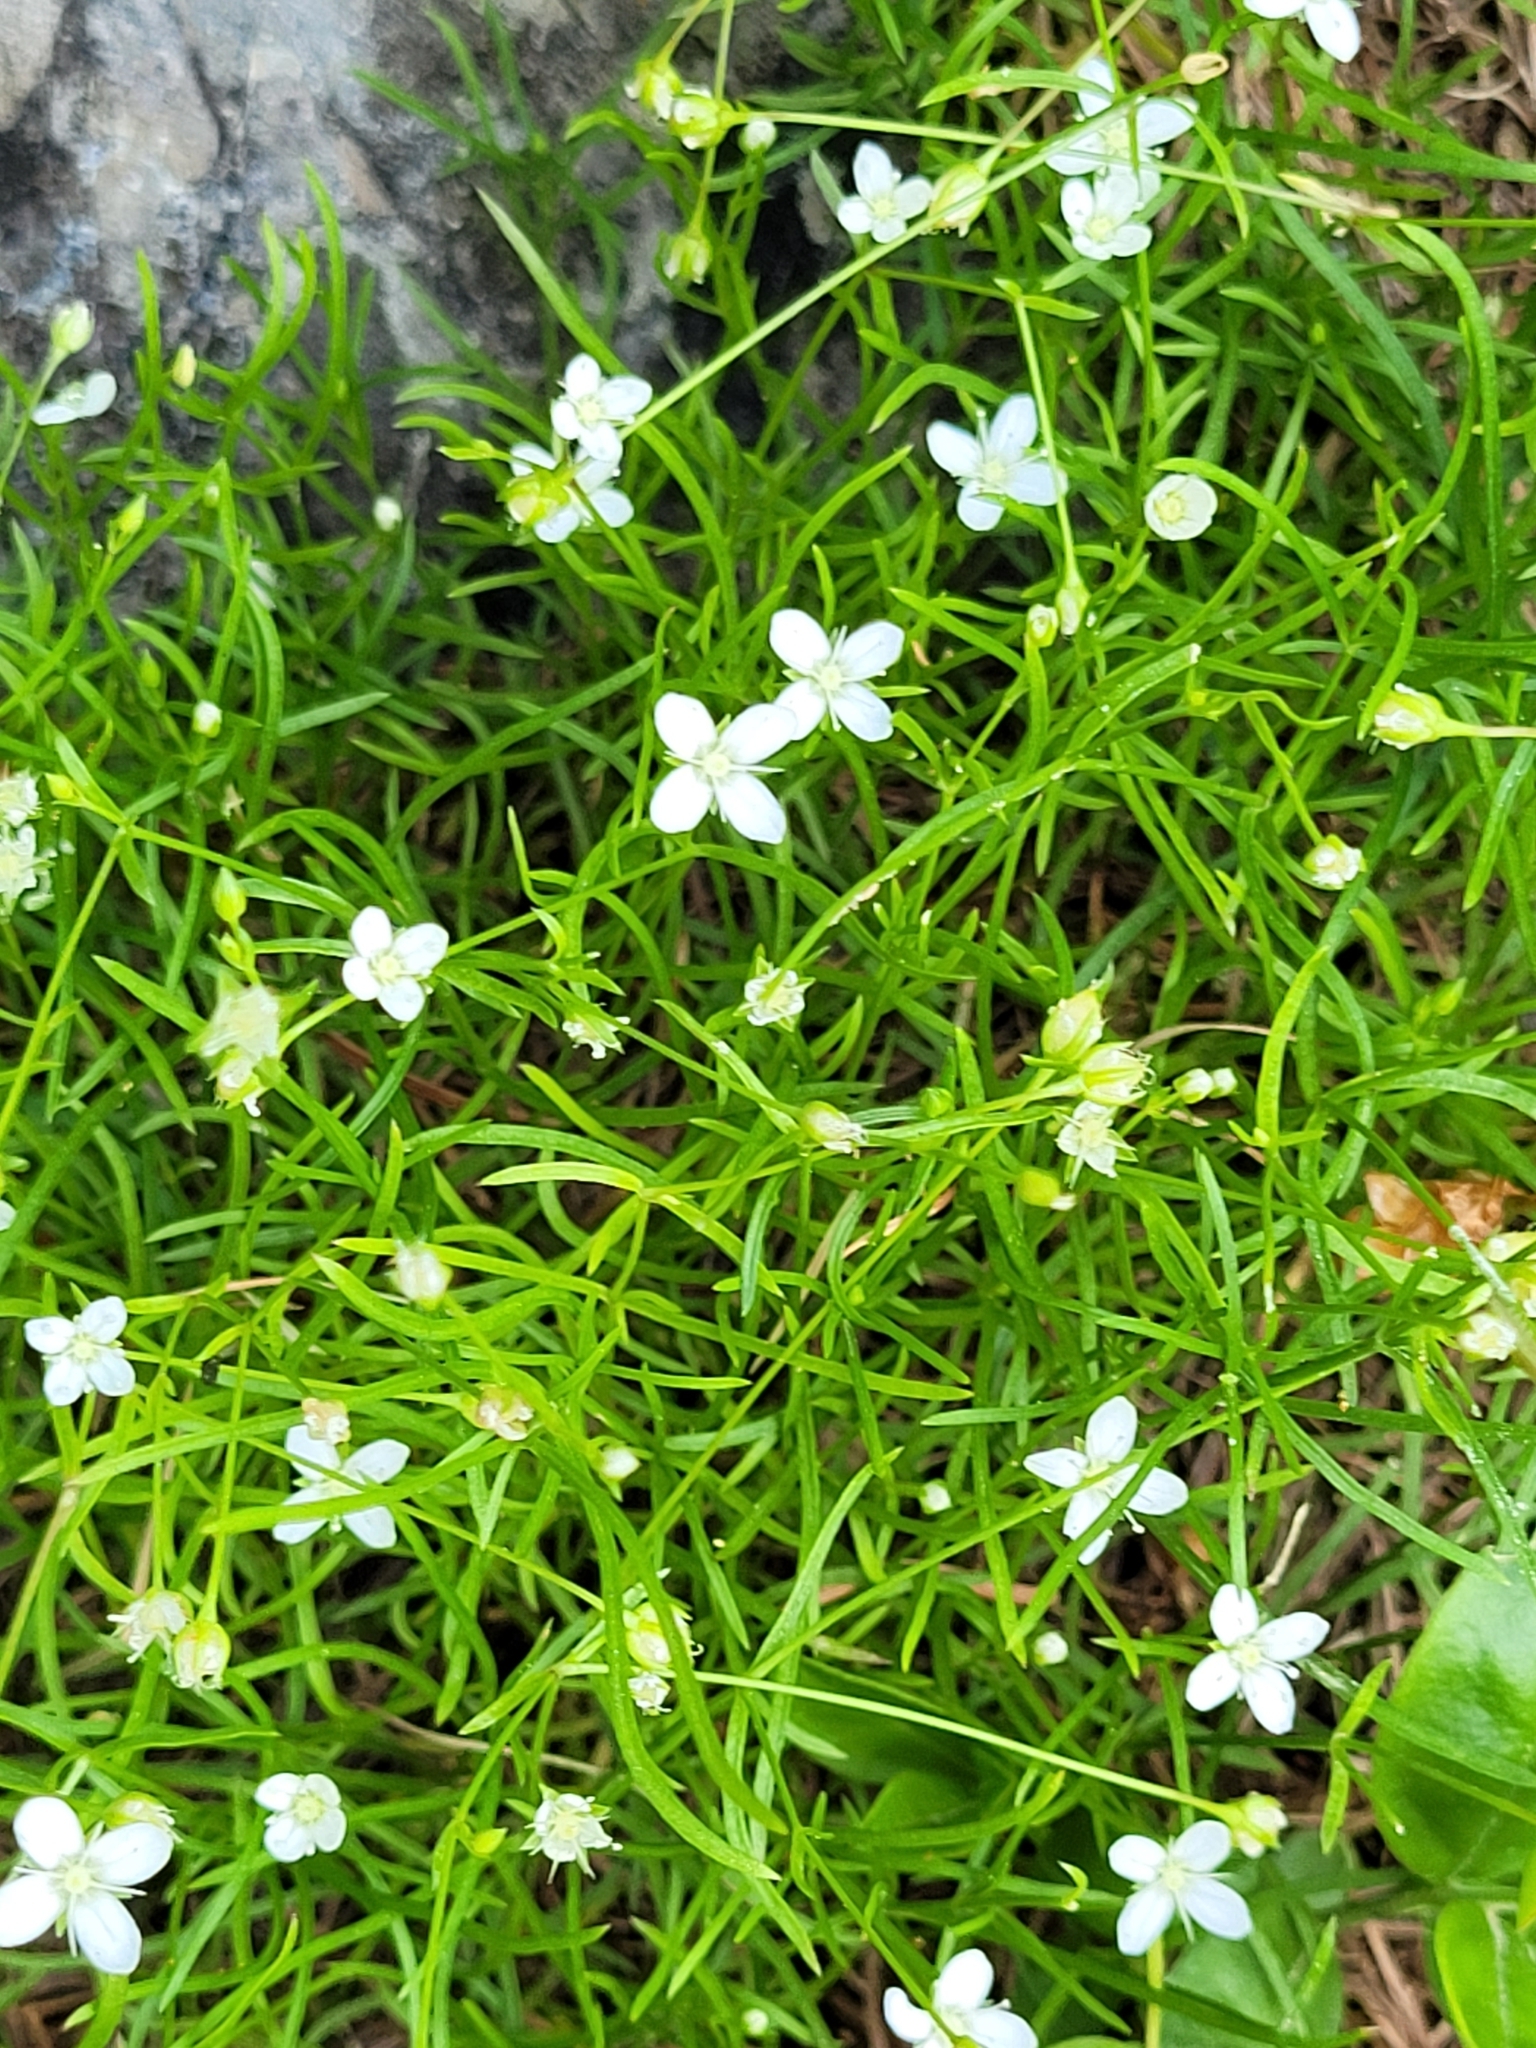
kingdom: Plantae
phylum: Tracheophyta
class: Magnoliopsida
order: Caryophyllales
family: Caryophyllaceae
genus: Moehringia
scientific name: Moehringia muscosa
